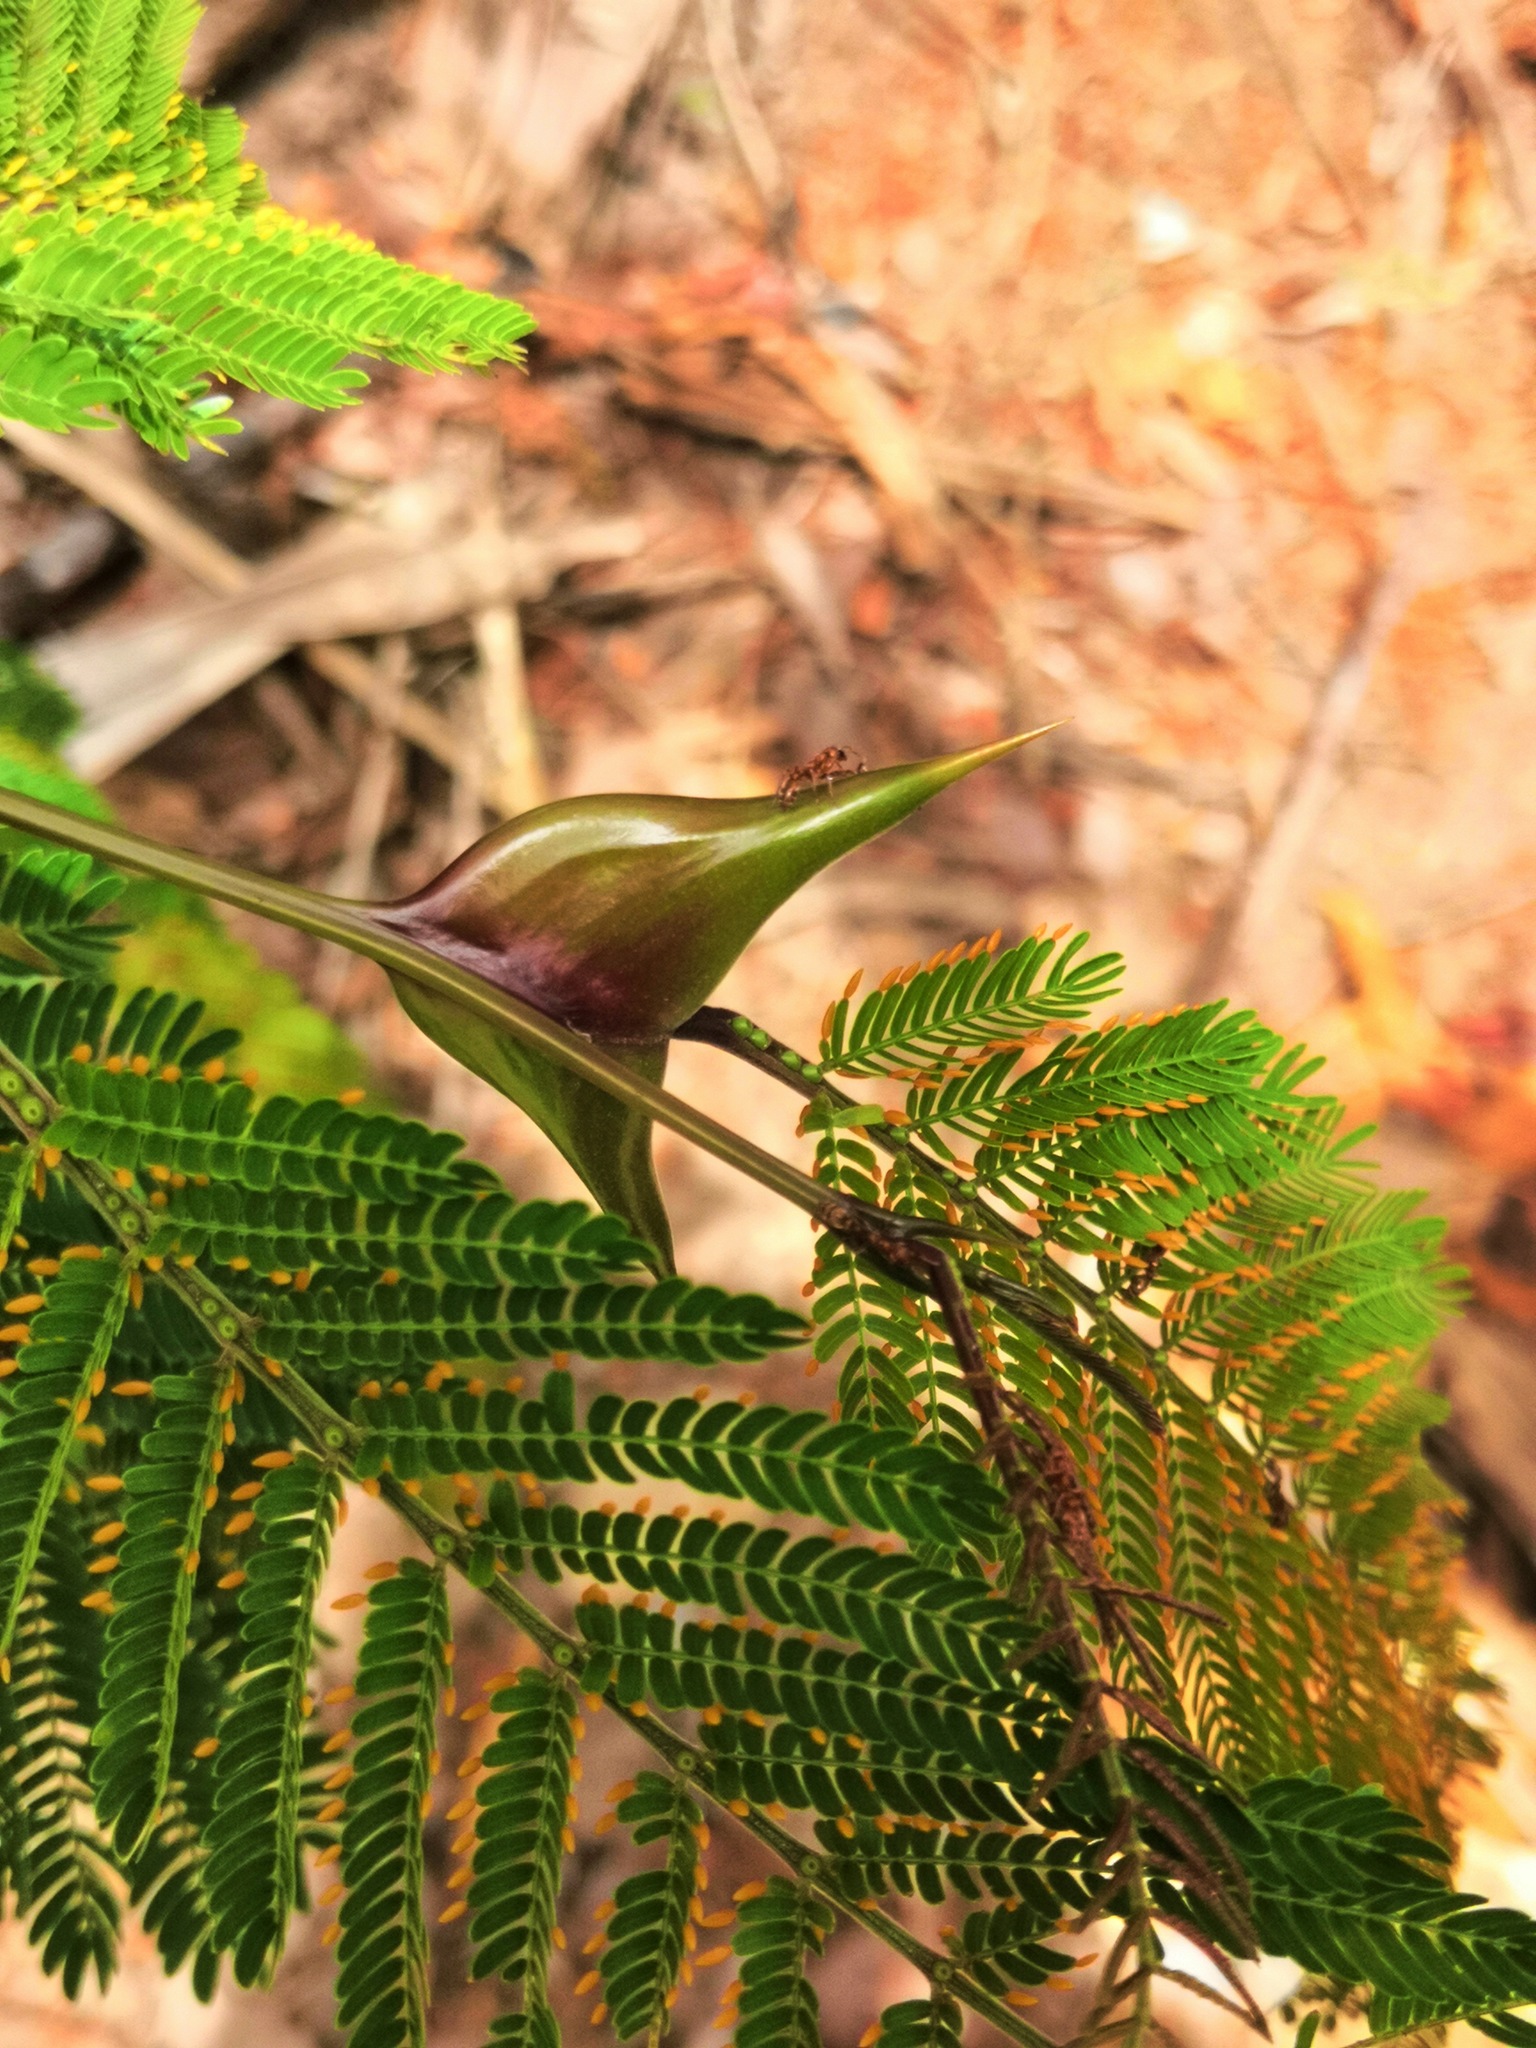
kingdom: Plantae
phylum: Tracheophyta
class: Magnoliopsida
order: Fabales
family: Fabaceae
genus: Vachellia
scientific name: Vachellia hindsii
